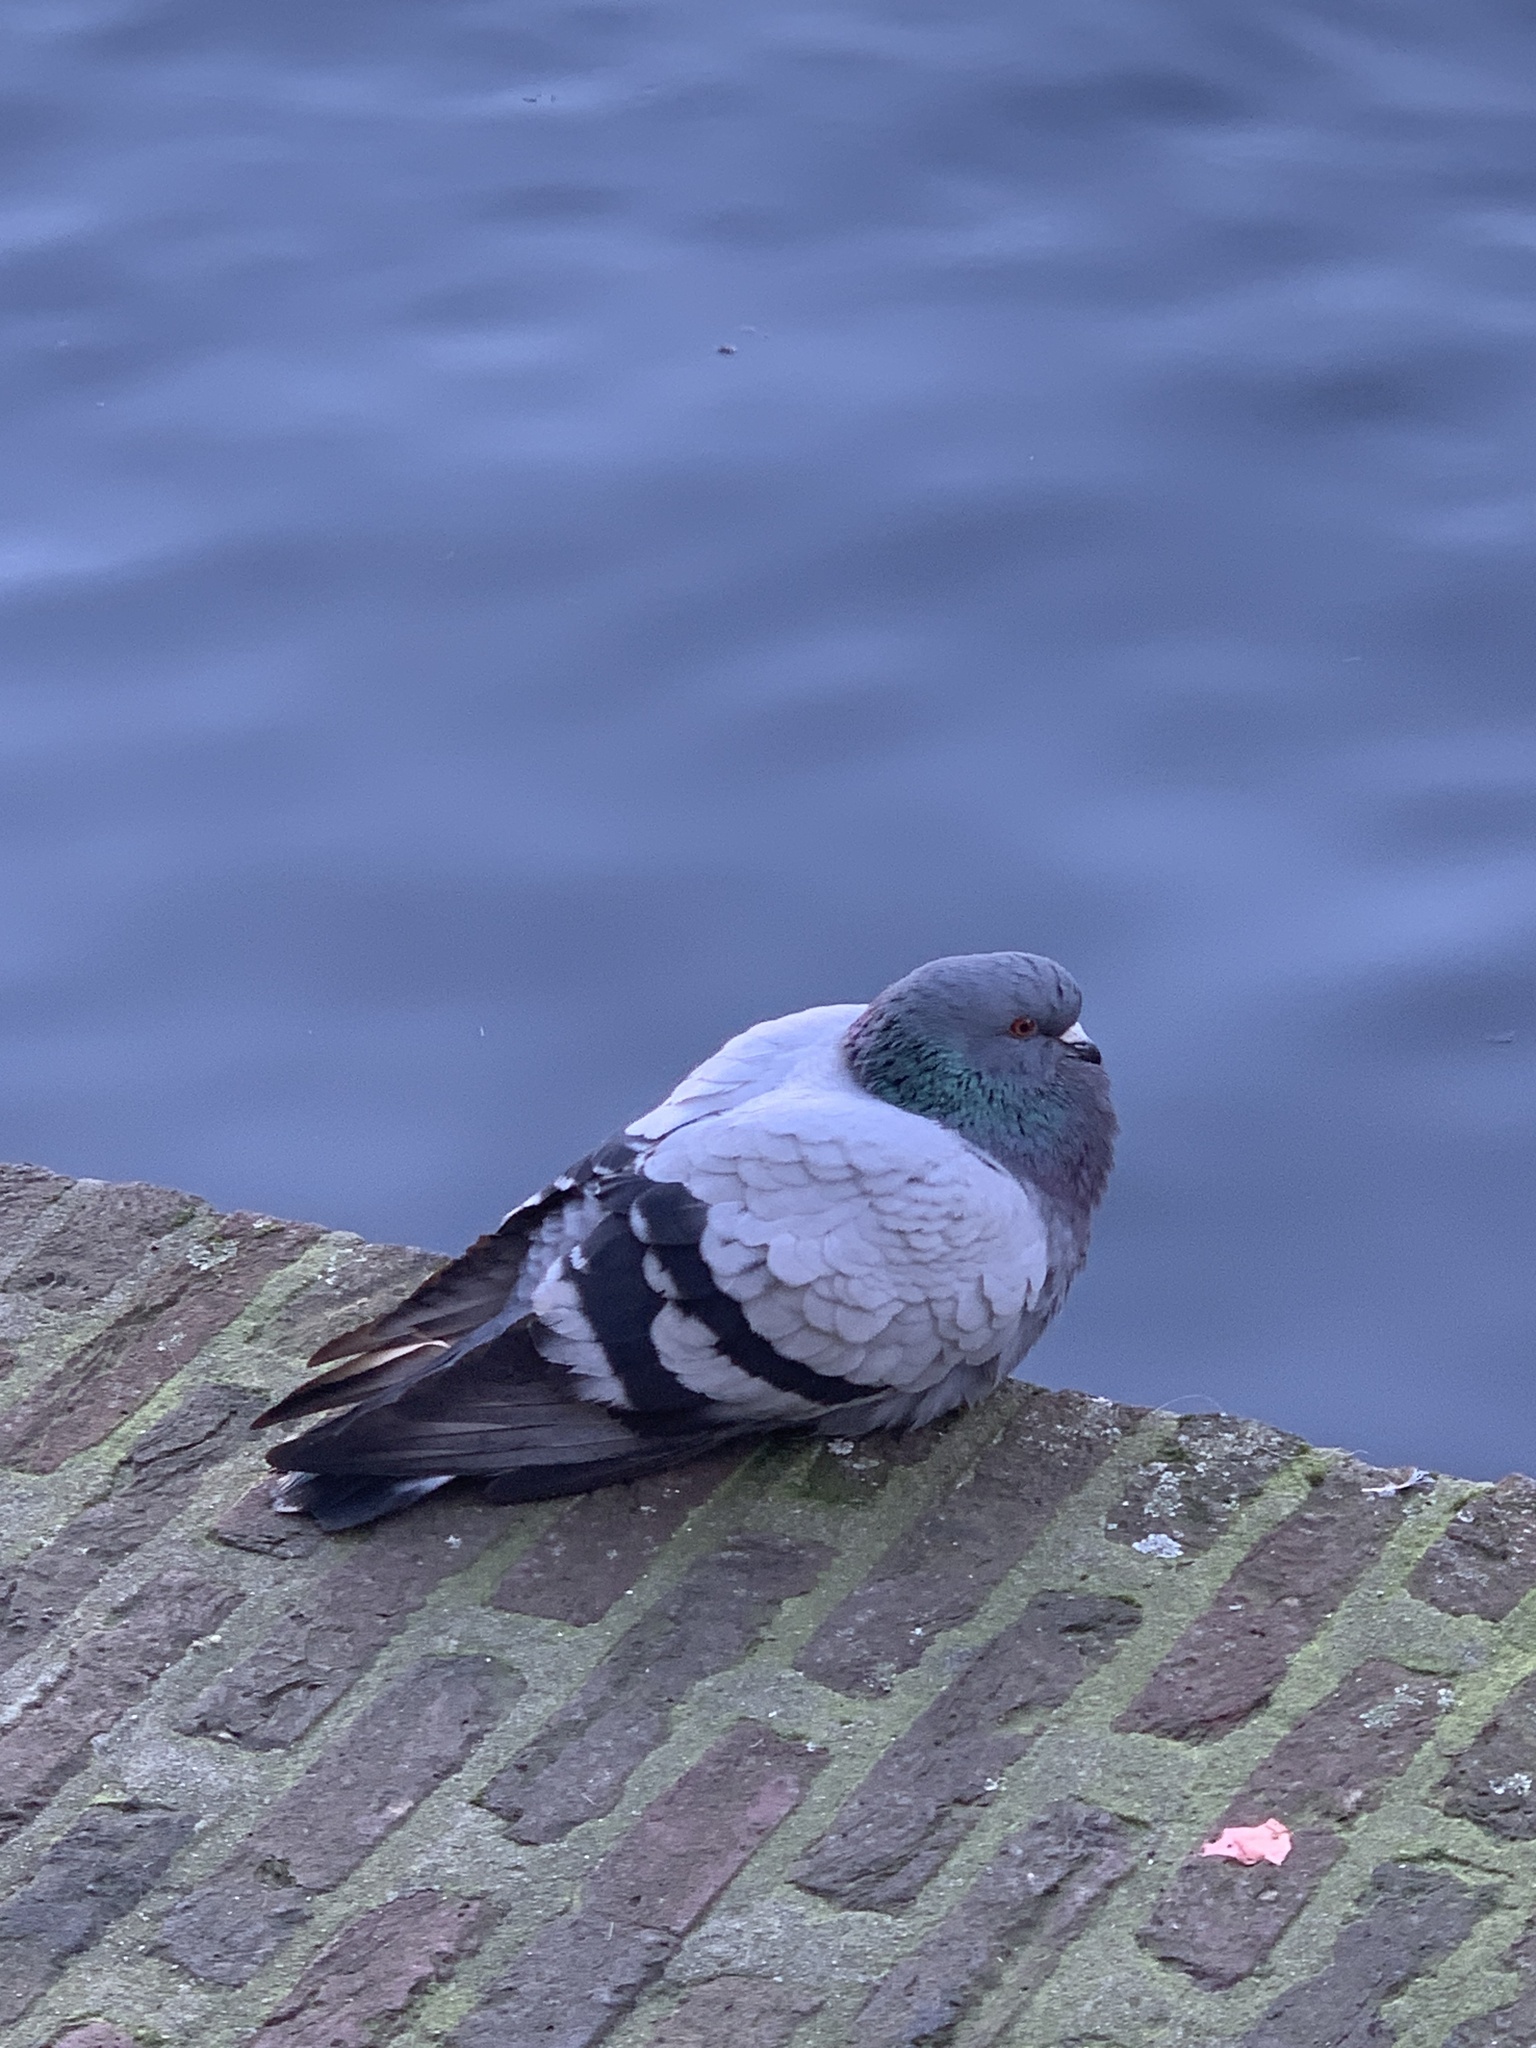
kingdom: Animalia
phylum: Chordata
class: Aves
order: Columbiformes
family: Columbidae
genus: Columba
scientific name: Columba livia
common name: Rock pigeon
